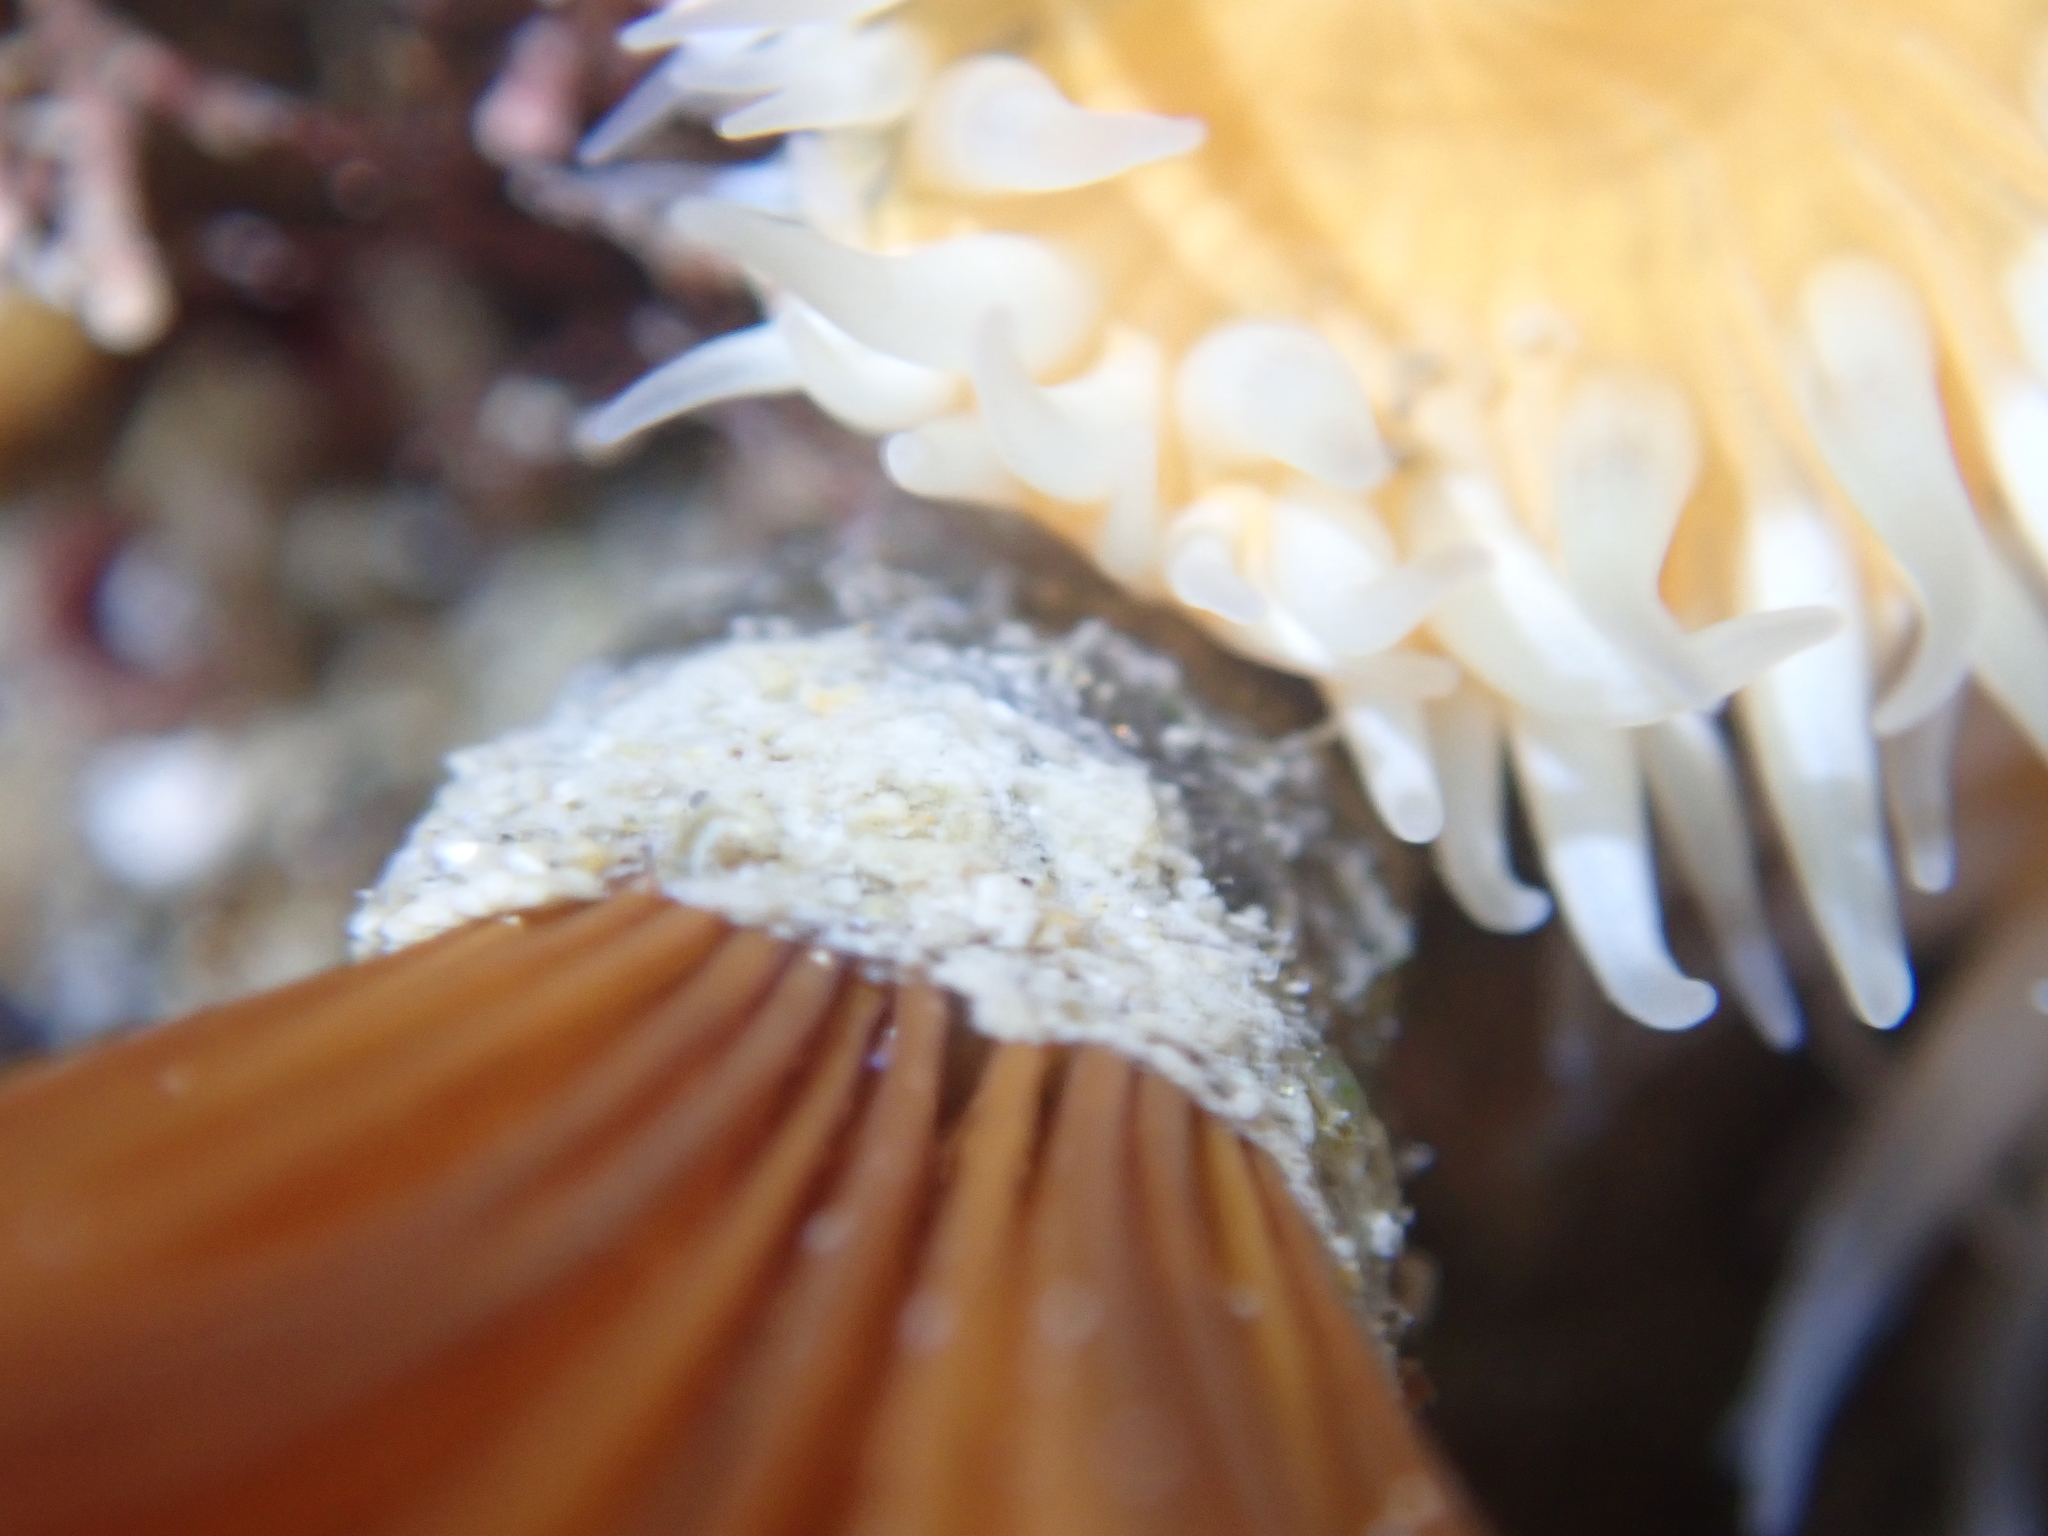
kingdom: Animalia
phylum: Annelida
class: Polychaeta
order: Sabellida
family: Sabellidae
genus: Acromegalomma
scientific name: Acromegalomma suspiciens
